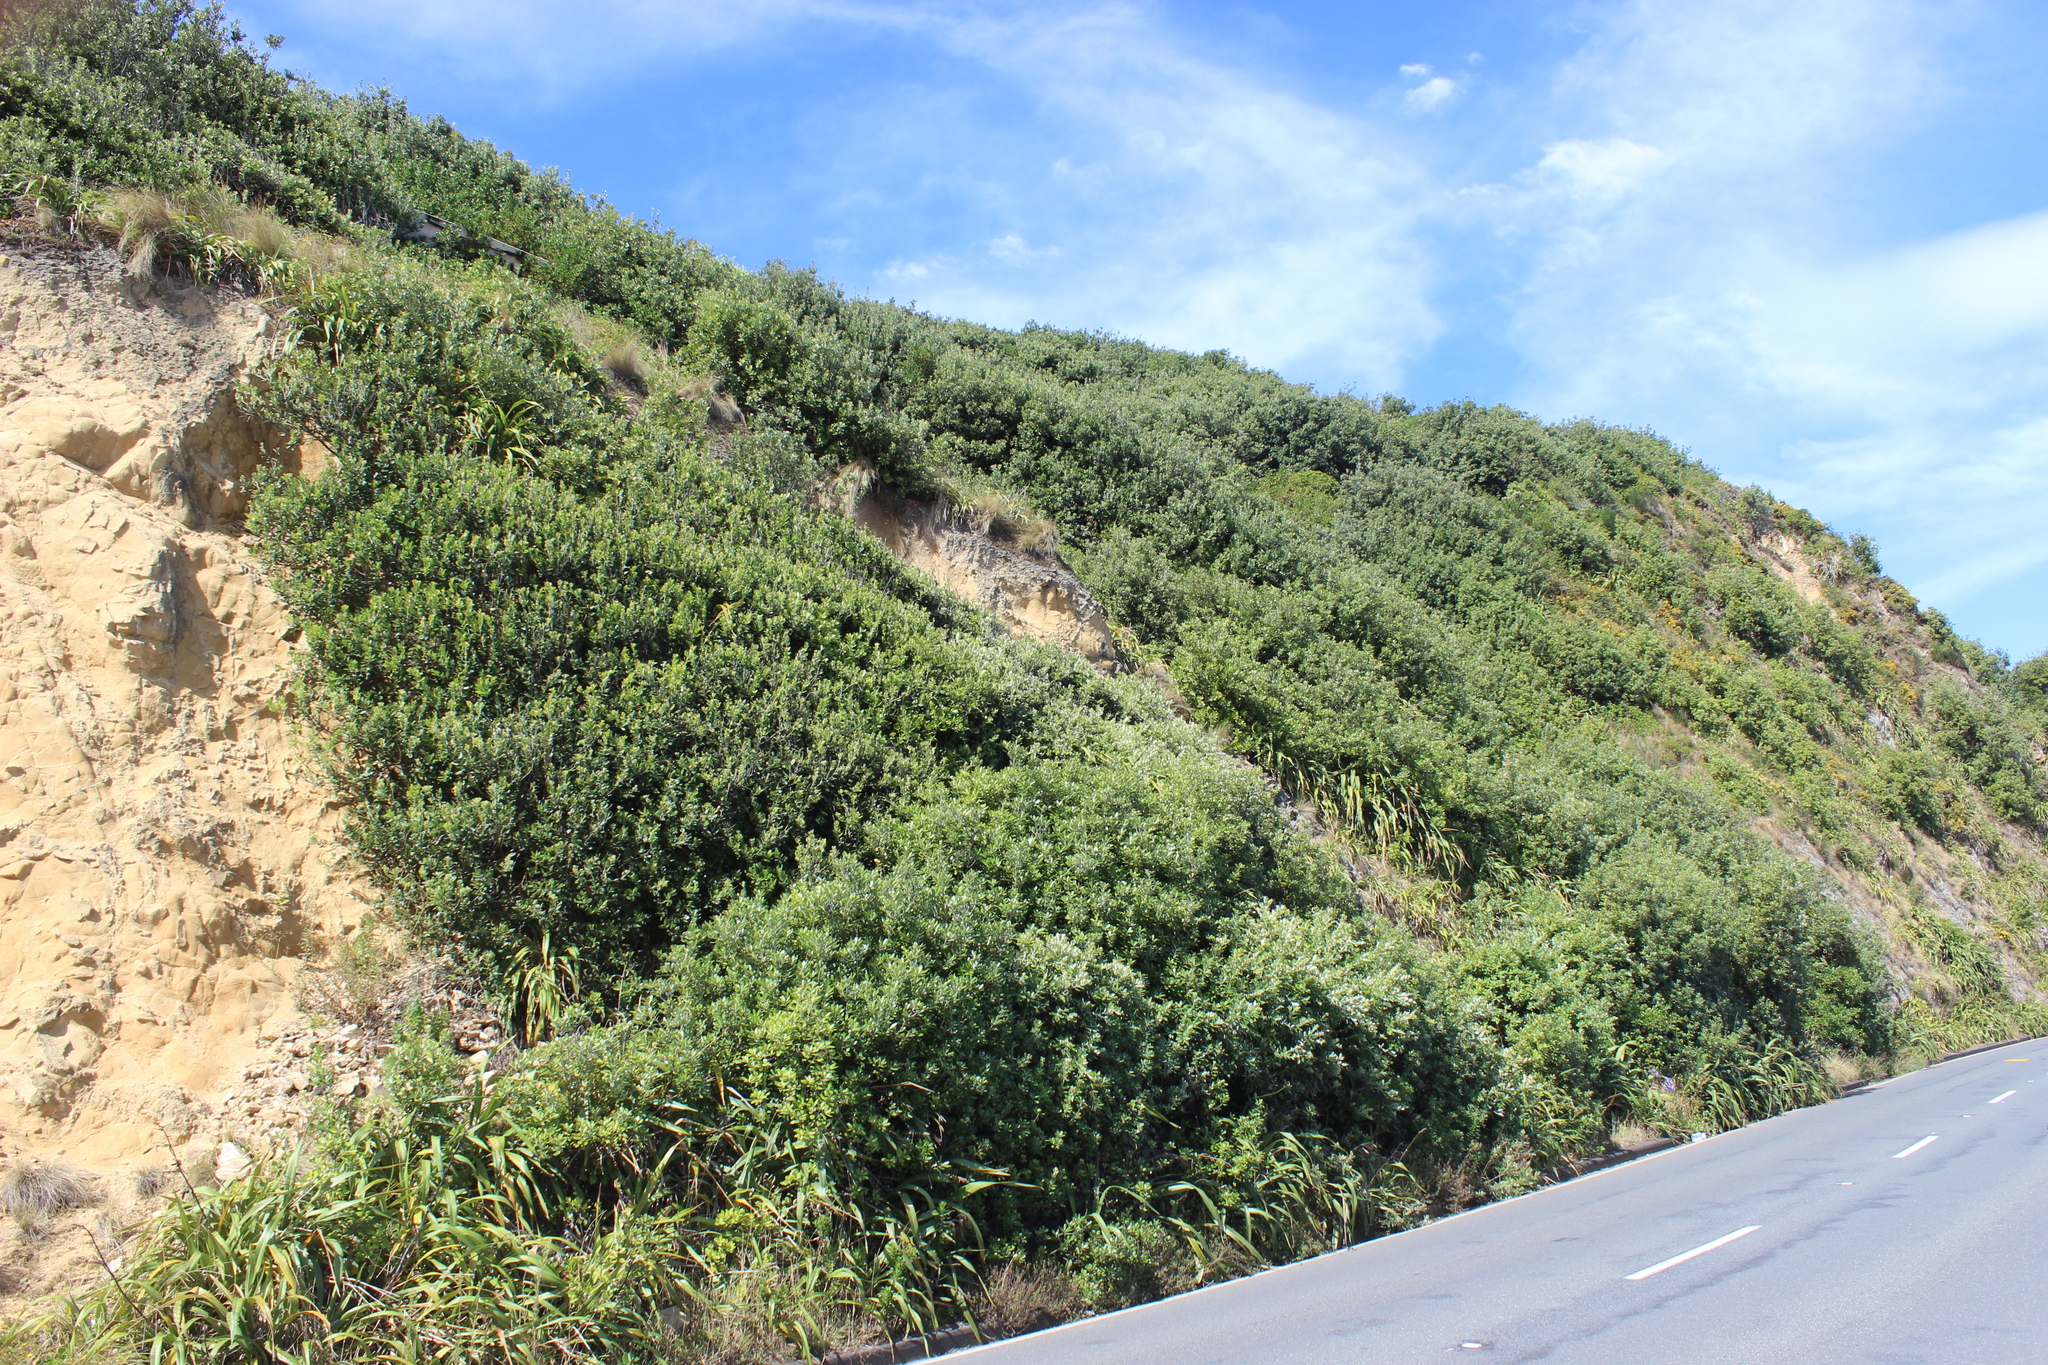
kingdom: Plantae
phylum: Tracheophyta
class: Magnoliopsida
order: Apiales
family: Pittosporaceae
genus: Pittosporum
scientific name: Pittosporum crassifolium
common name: Karo
